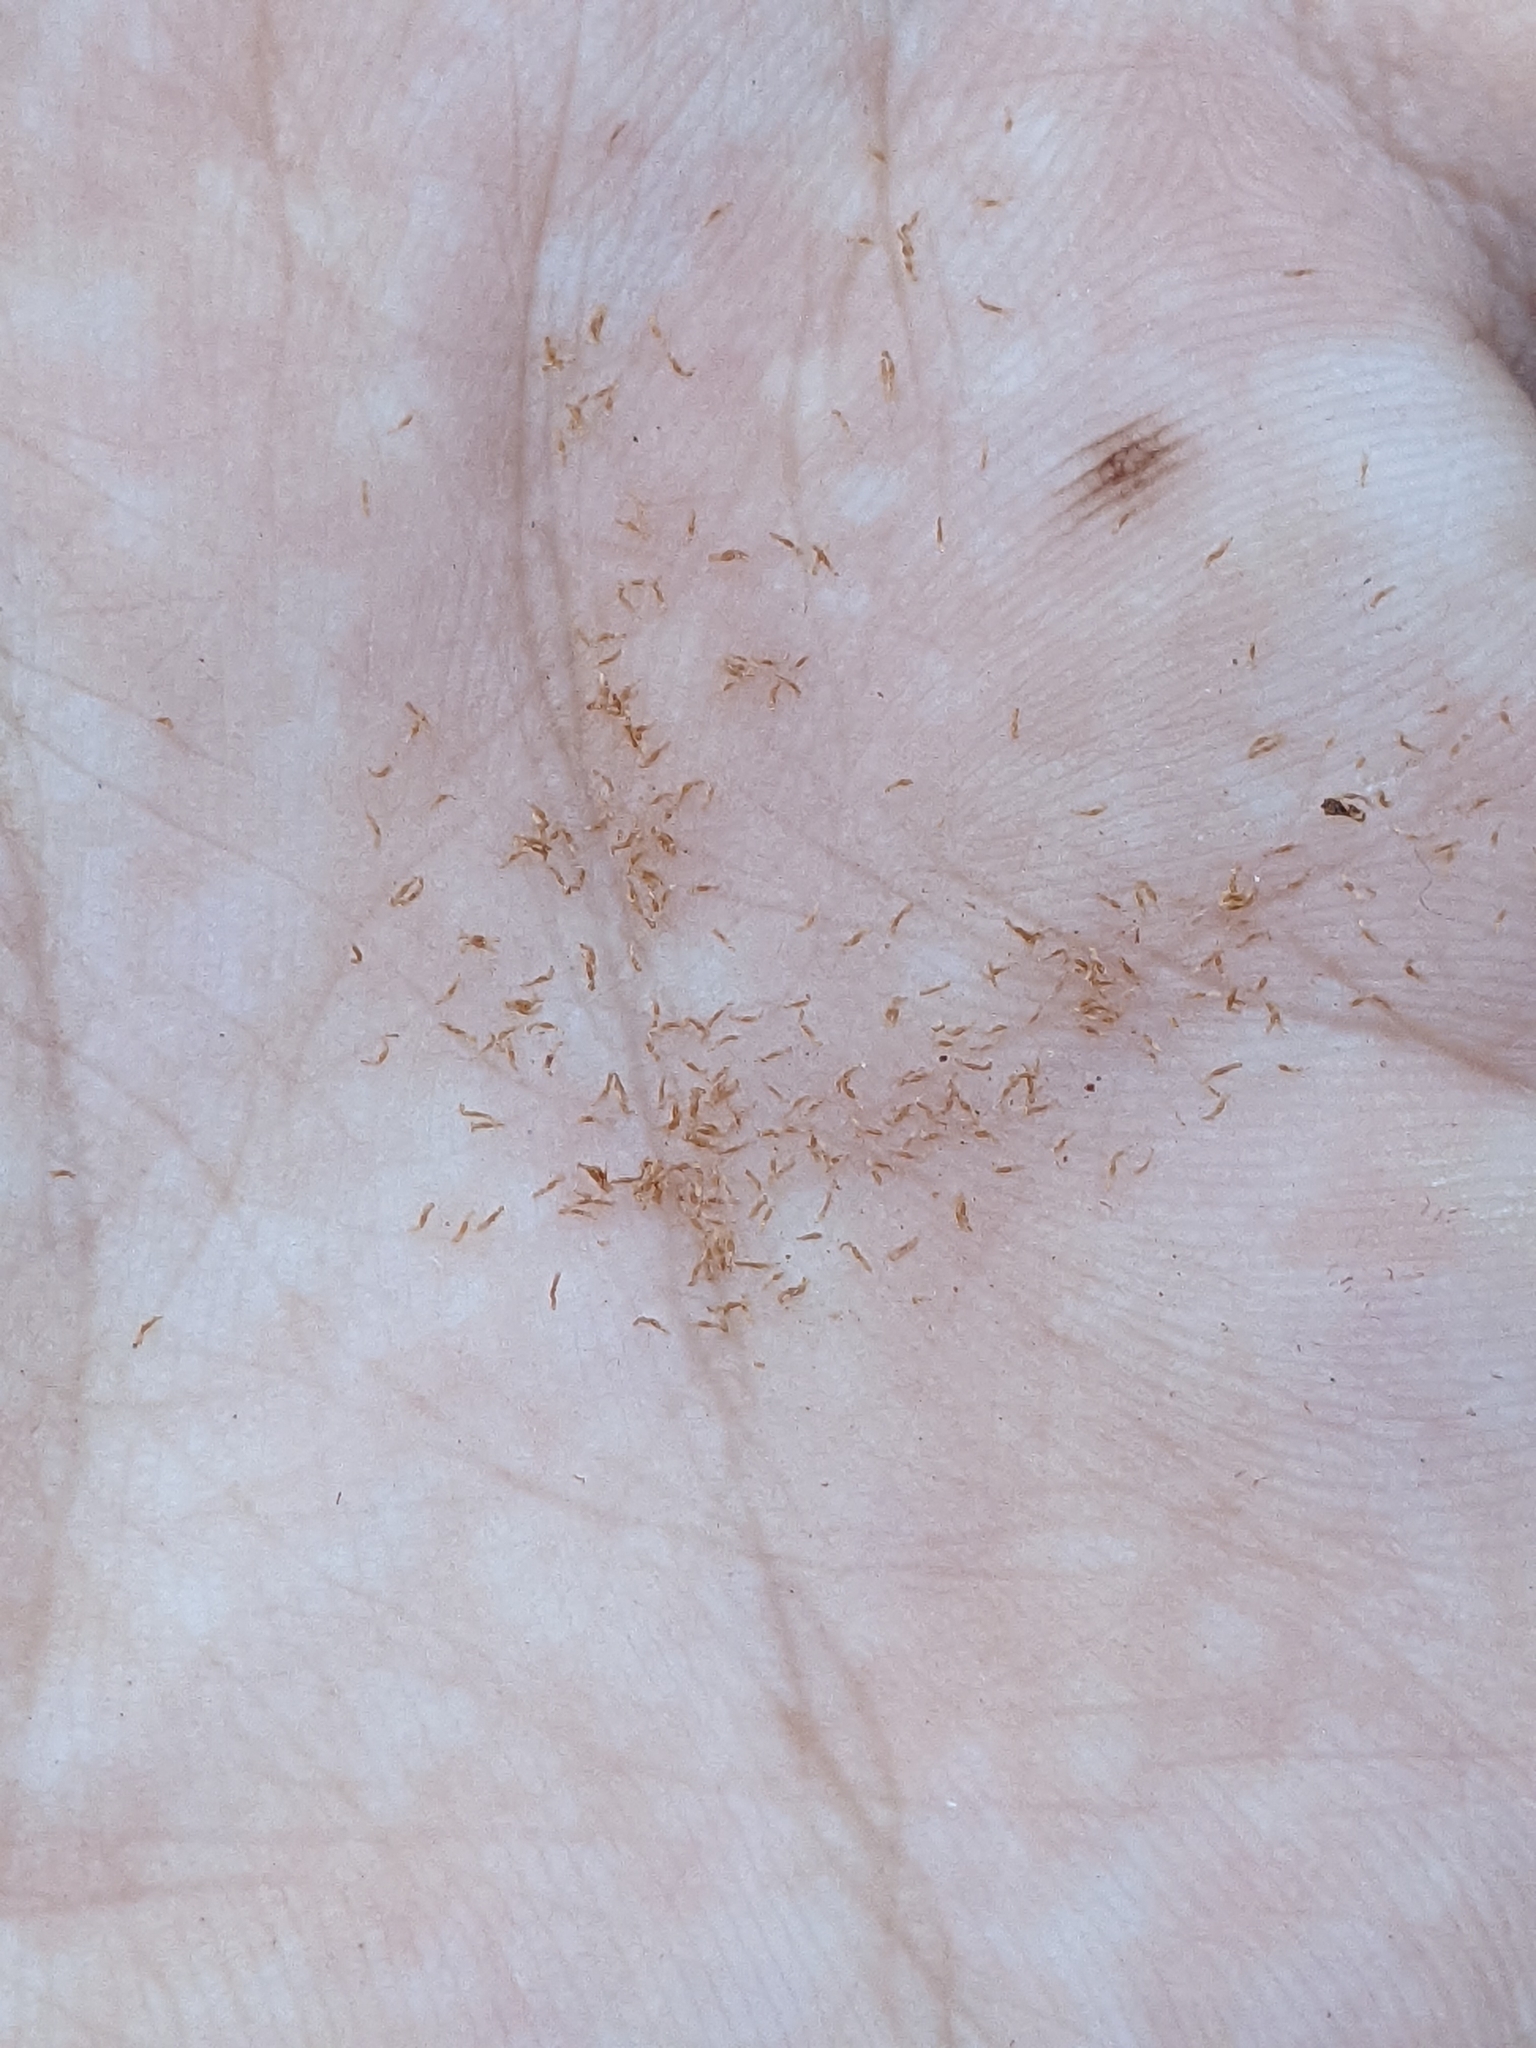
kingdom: Plantae
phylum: Tracheophyta
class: Magnoliopsida
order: Ericales
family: Ericaceae
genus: Monotropa
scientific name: Monotropa uniflora
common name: Convulsion root
